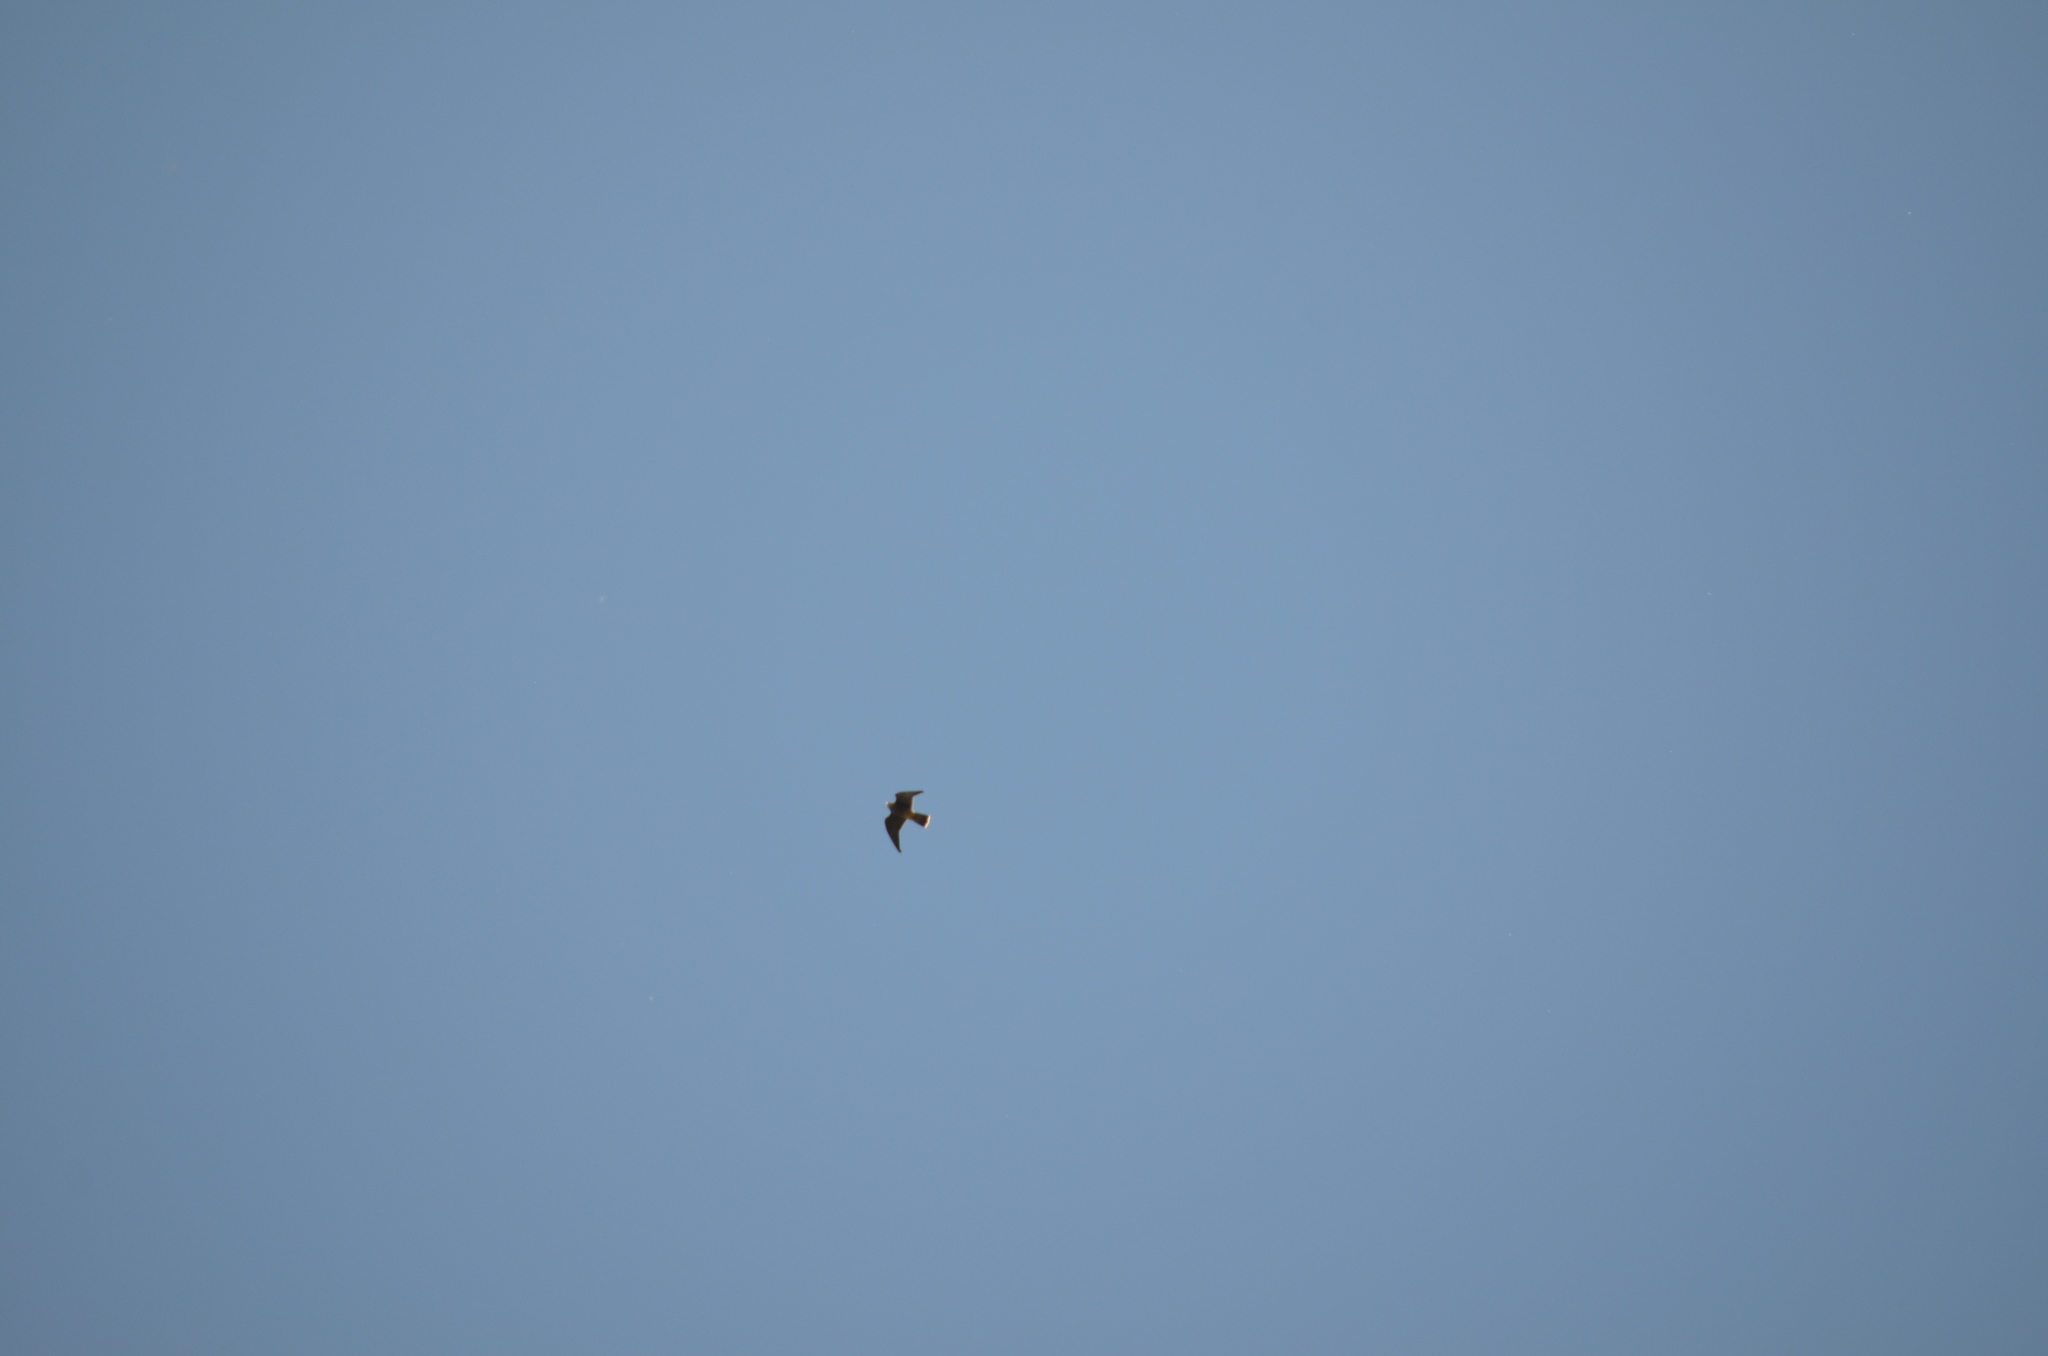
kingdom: Animalia
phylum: Chordata
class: Aves
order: Falconiformes
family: Falconidae
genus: Falco
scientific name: Falco peregrinus
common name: Peregrine falcon
